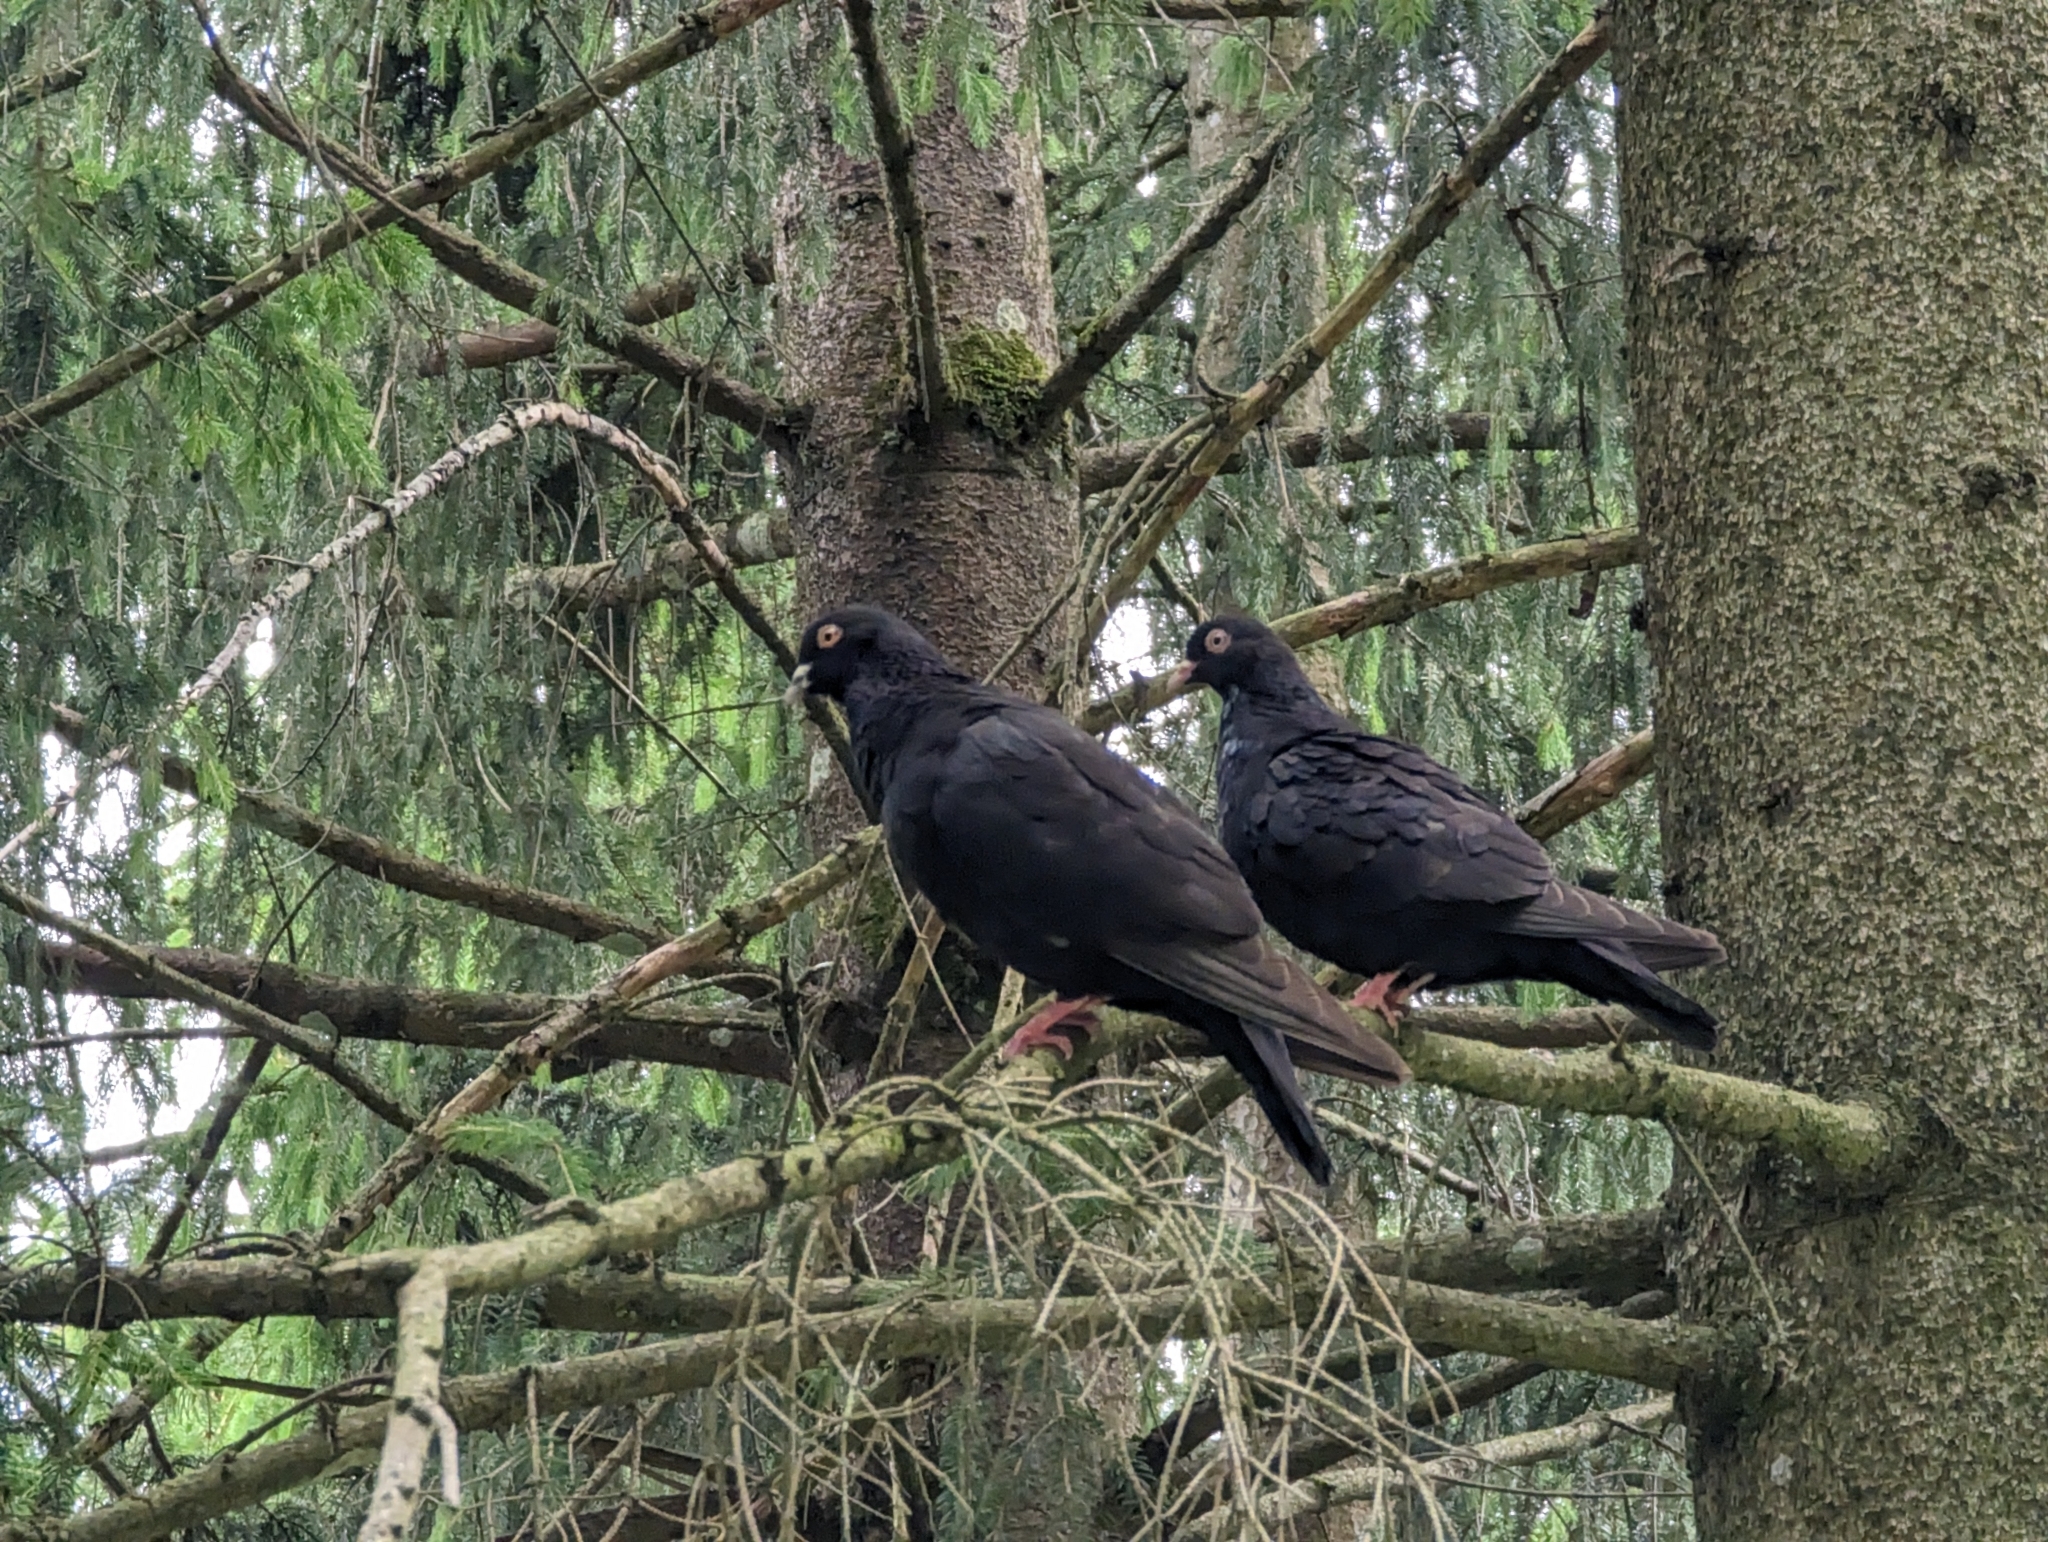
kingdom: Animalia
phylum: Chordata
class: Aves
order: Columbiformes
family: Columbidae
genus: Columba
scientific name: Columba livia
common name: Rock pigeon
